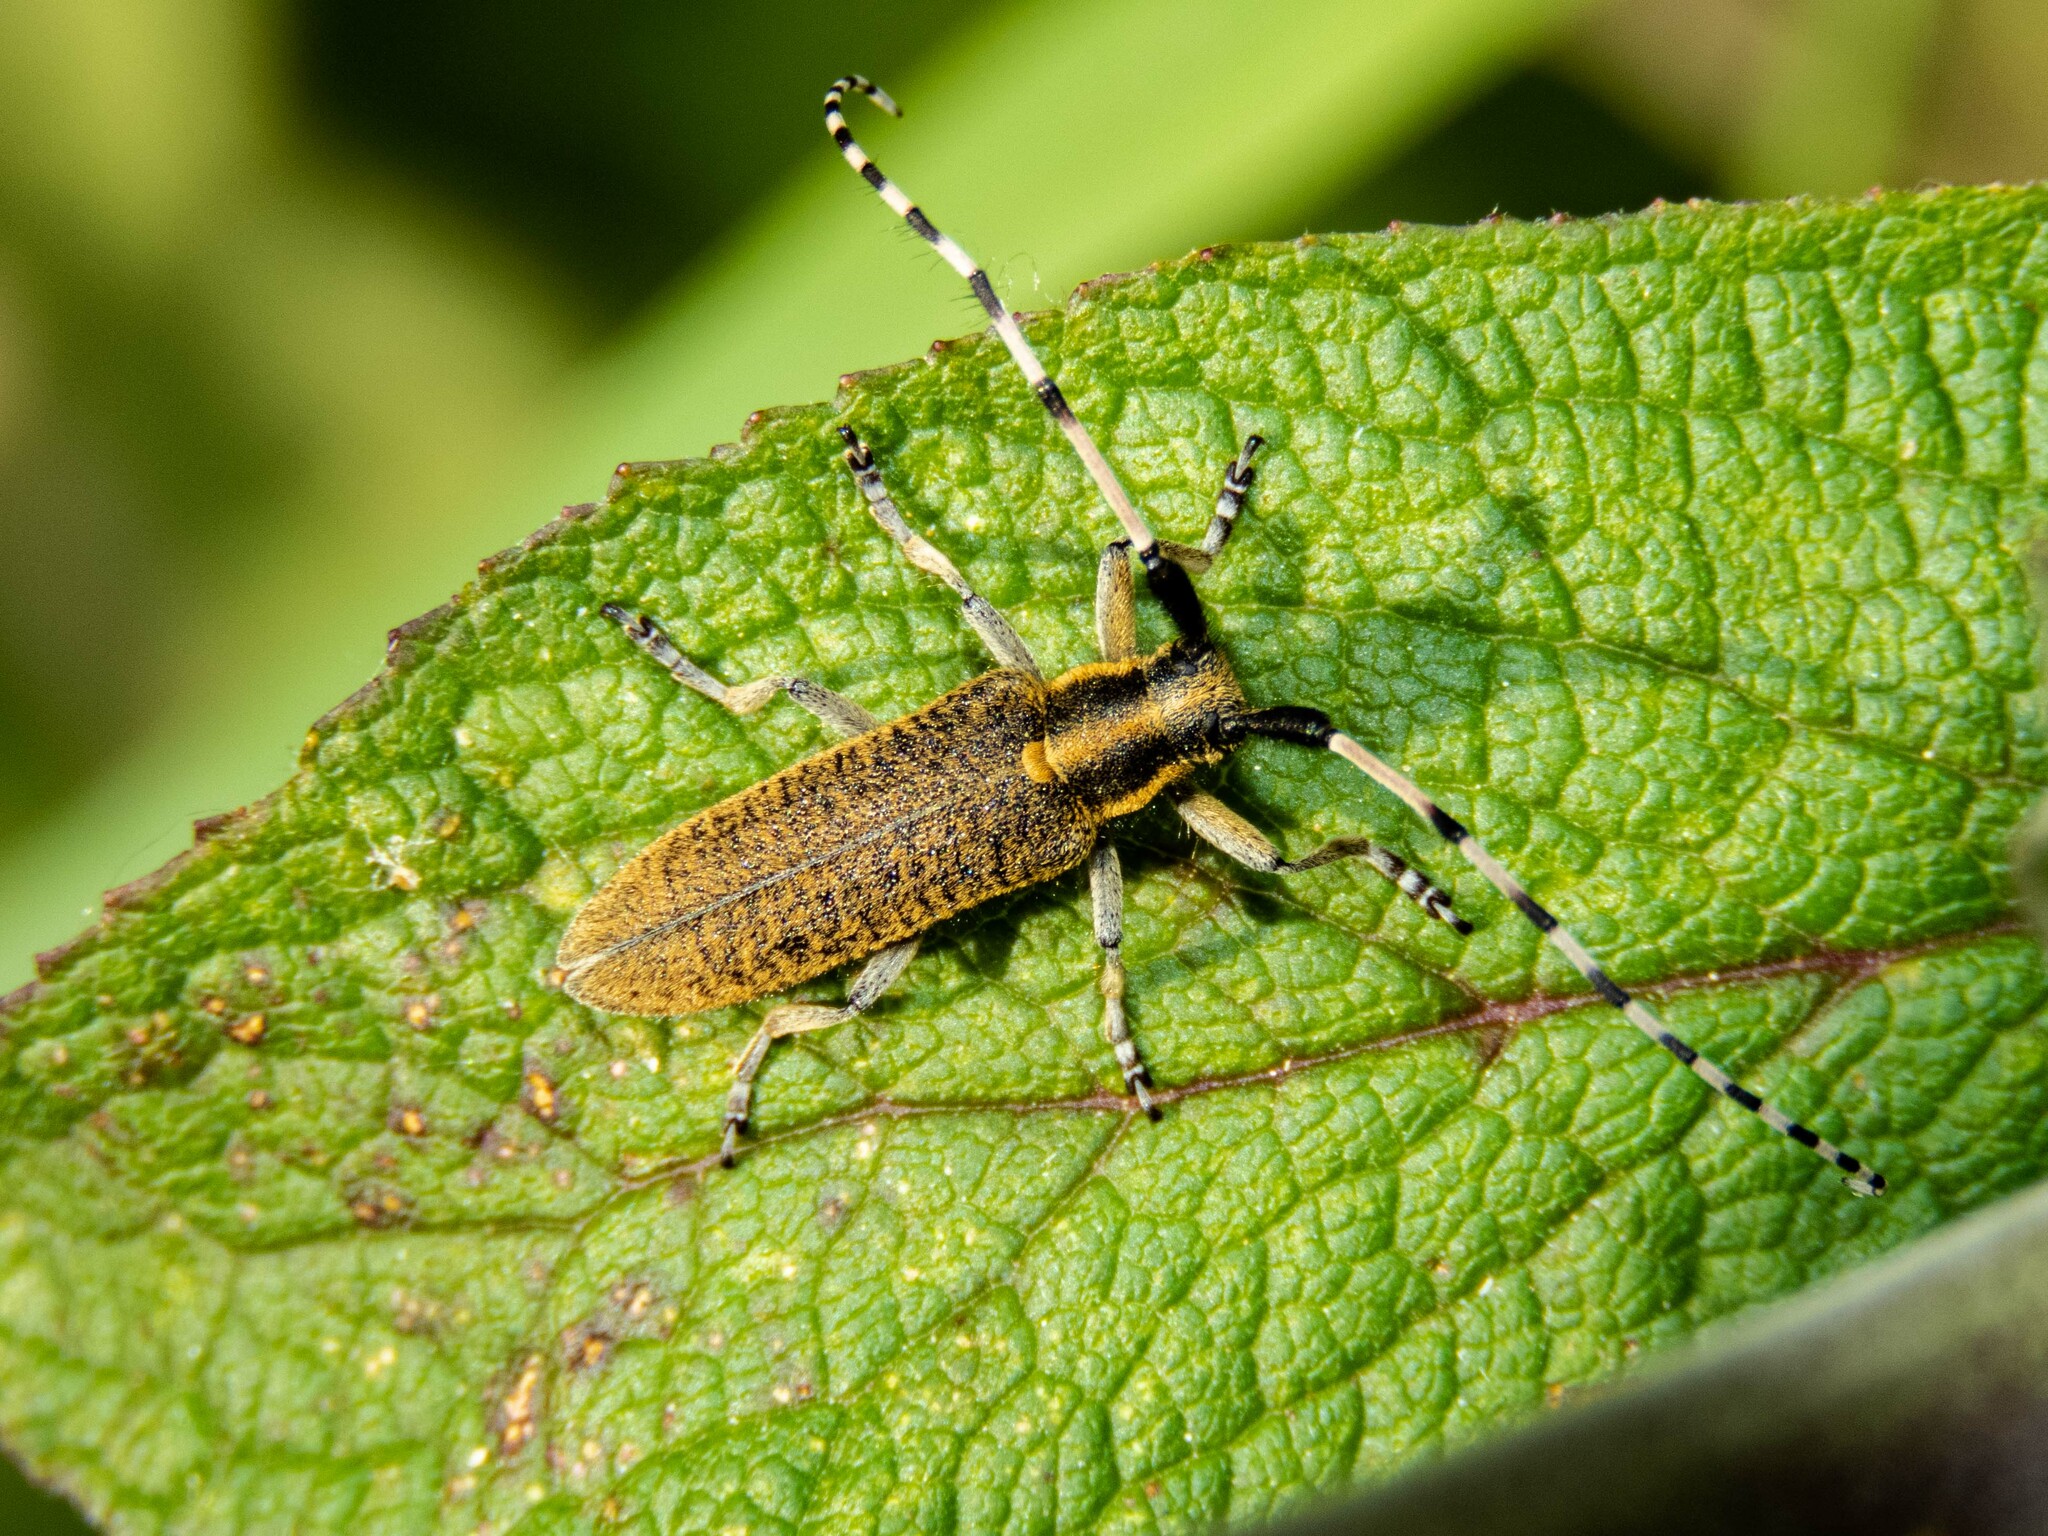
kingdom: Animalia
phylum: Arthropoda
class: Insecta
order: Coleoptera
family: Cerambycidae
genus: Agapanthia
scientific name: Agapanthia villosoviridescens
